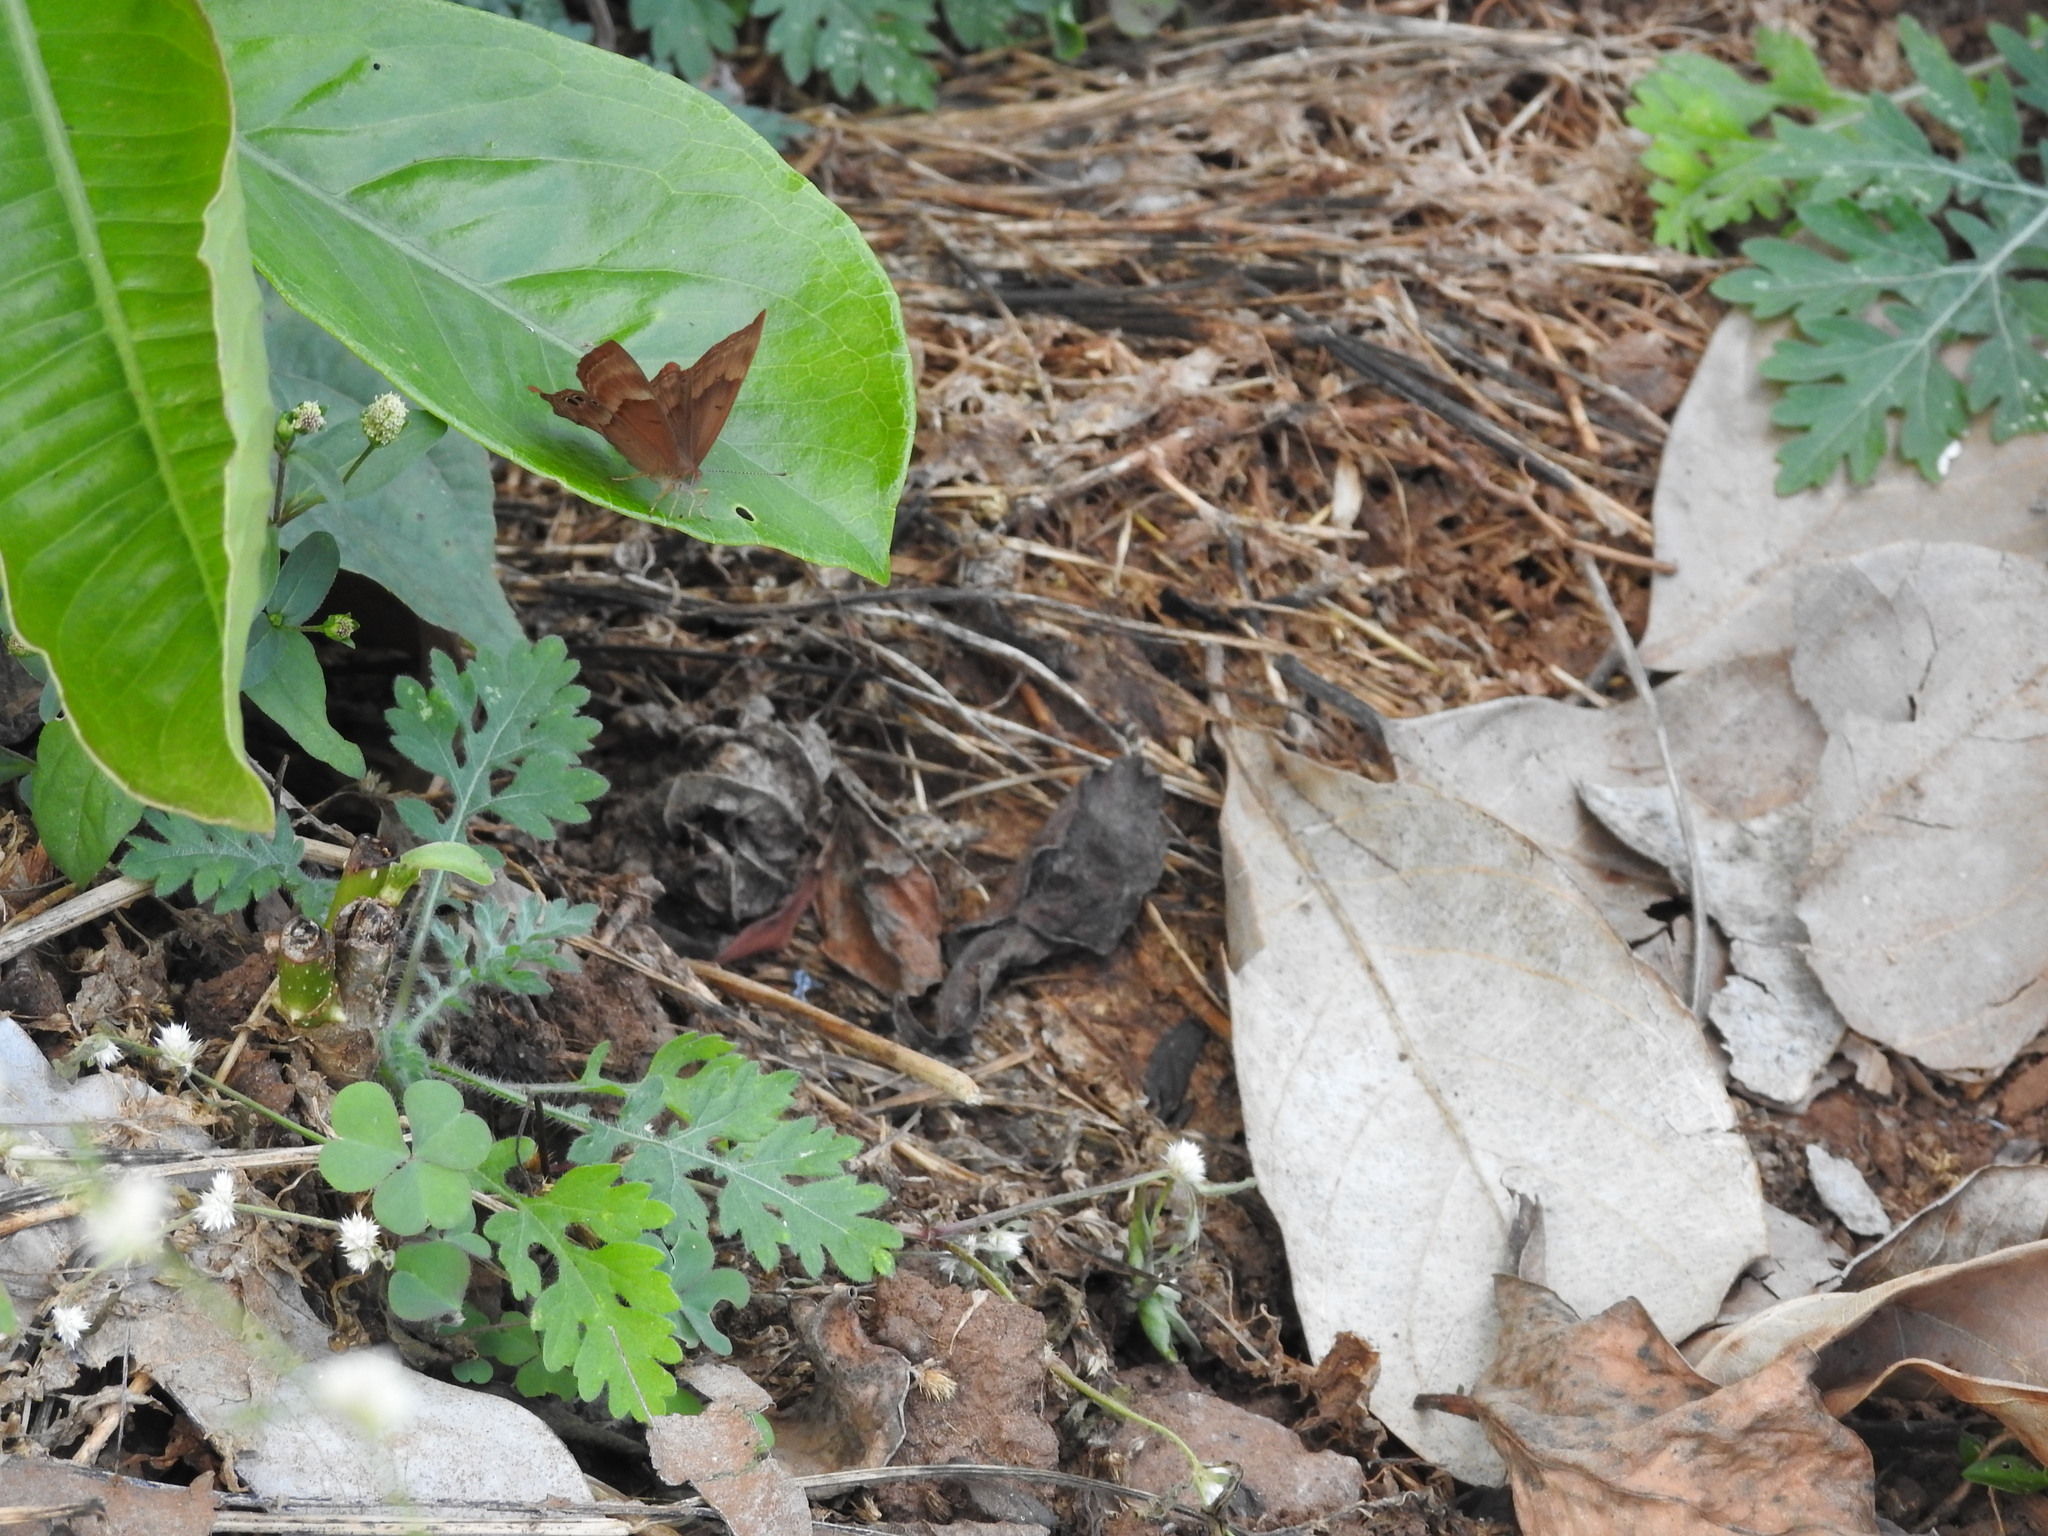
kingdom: Animalia
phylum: Arthropoda
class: Insecta
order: Lepidoptera
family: Lycaenidae
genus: Abisara
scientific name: Abisara bifasciata
